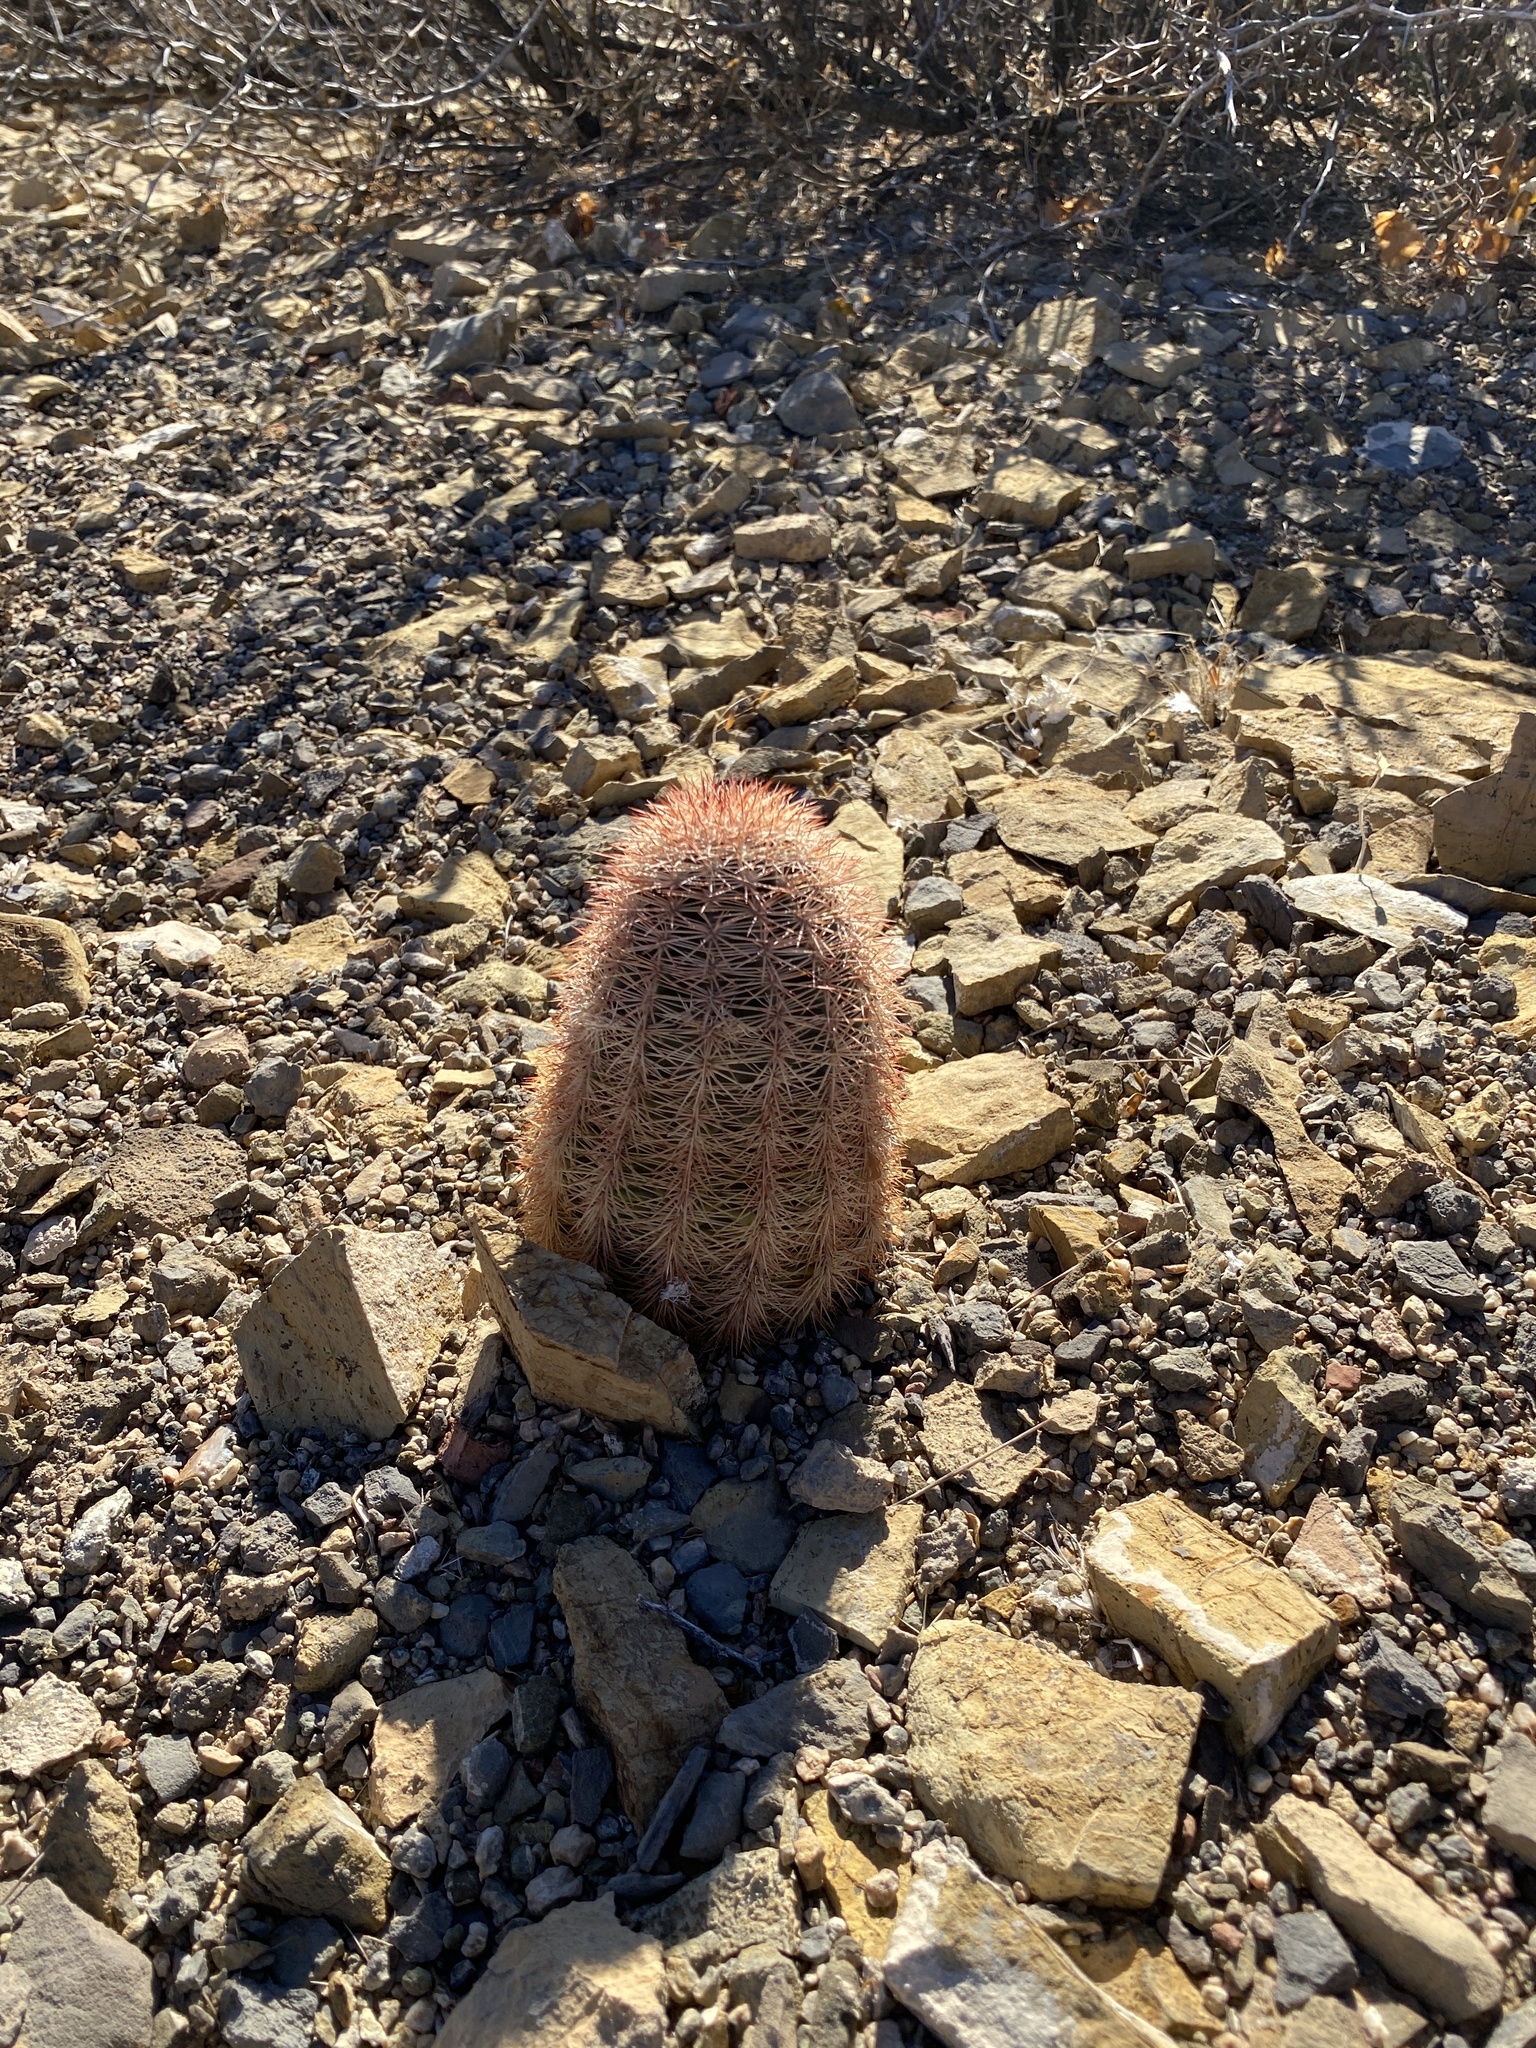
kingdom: Plantae
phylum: Tracheophyta
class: Magnoliopsida
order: Caryophyllales
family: Cactaceae
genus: Echinocereus
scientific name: Echinocereus dasyacanthus
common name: Spiny hedgehog cactus
